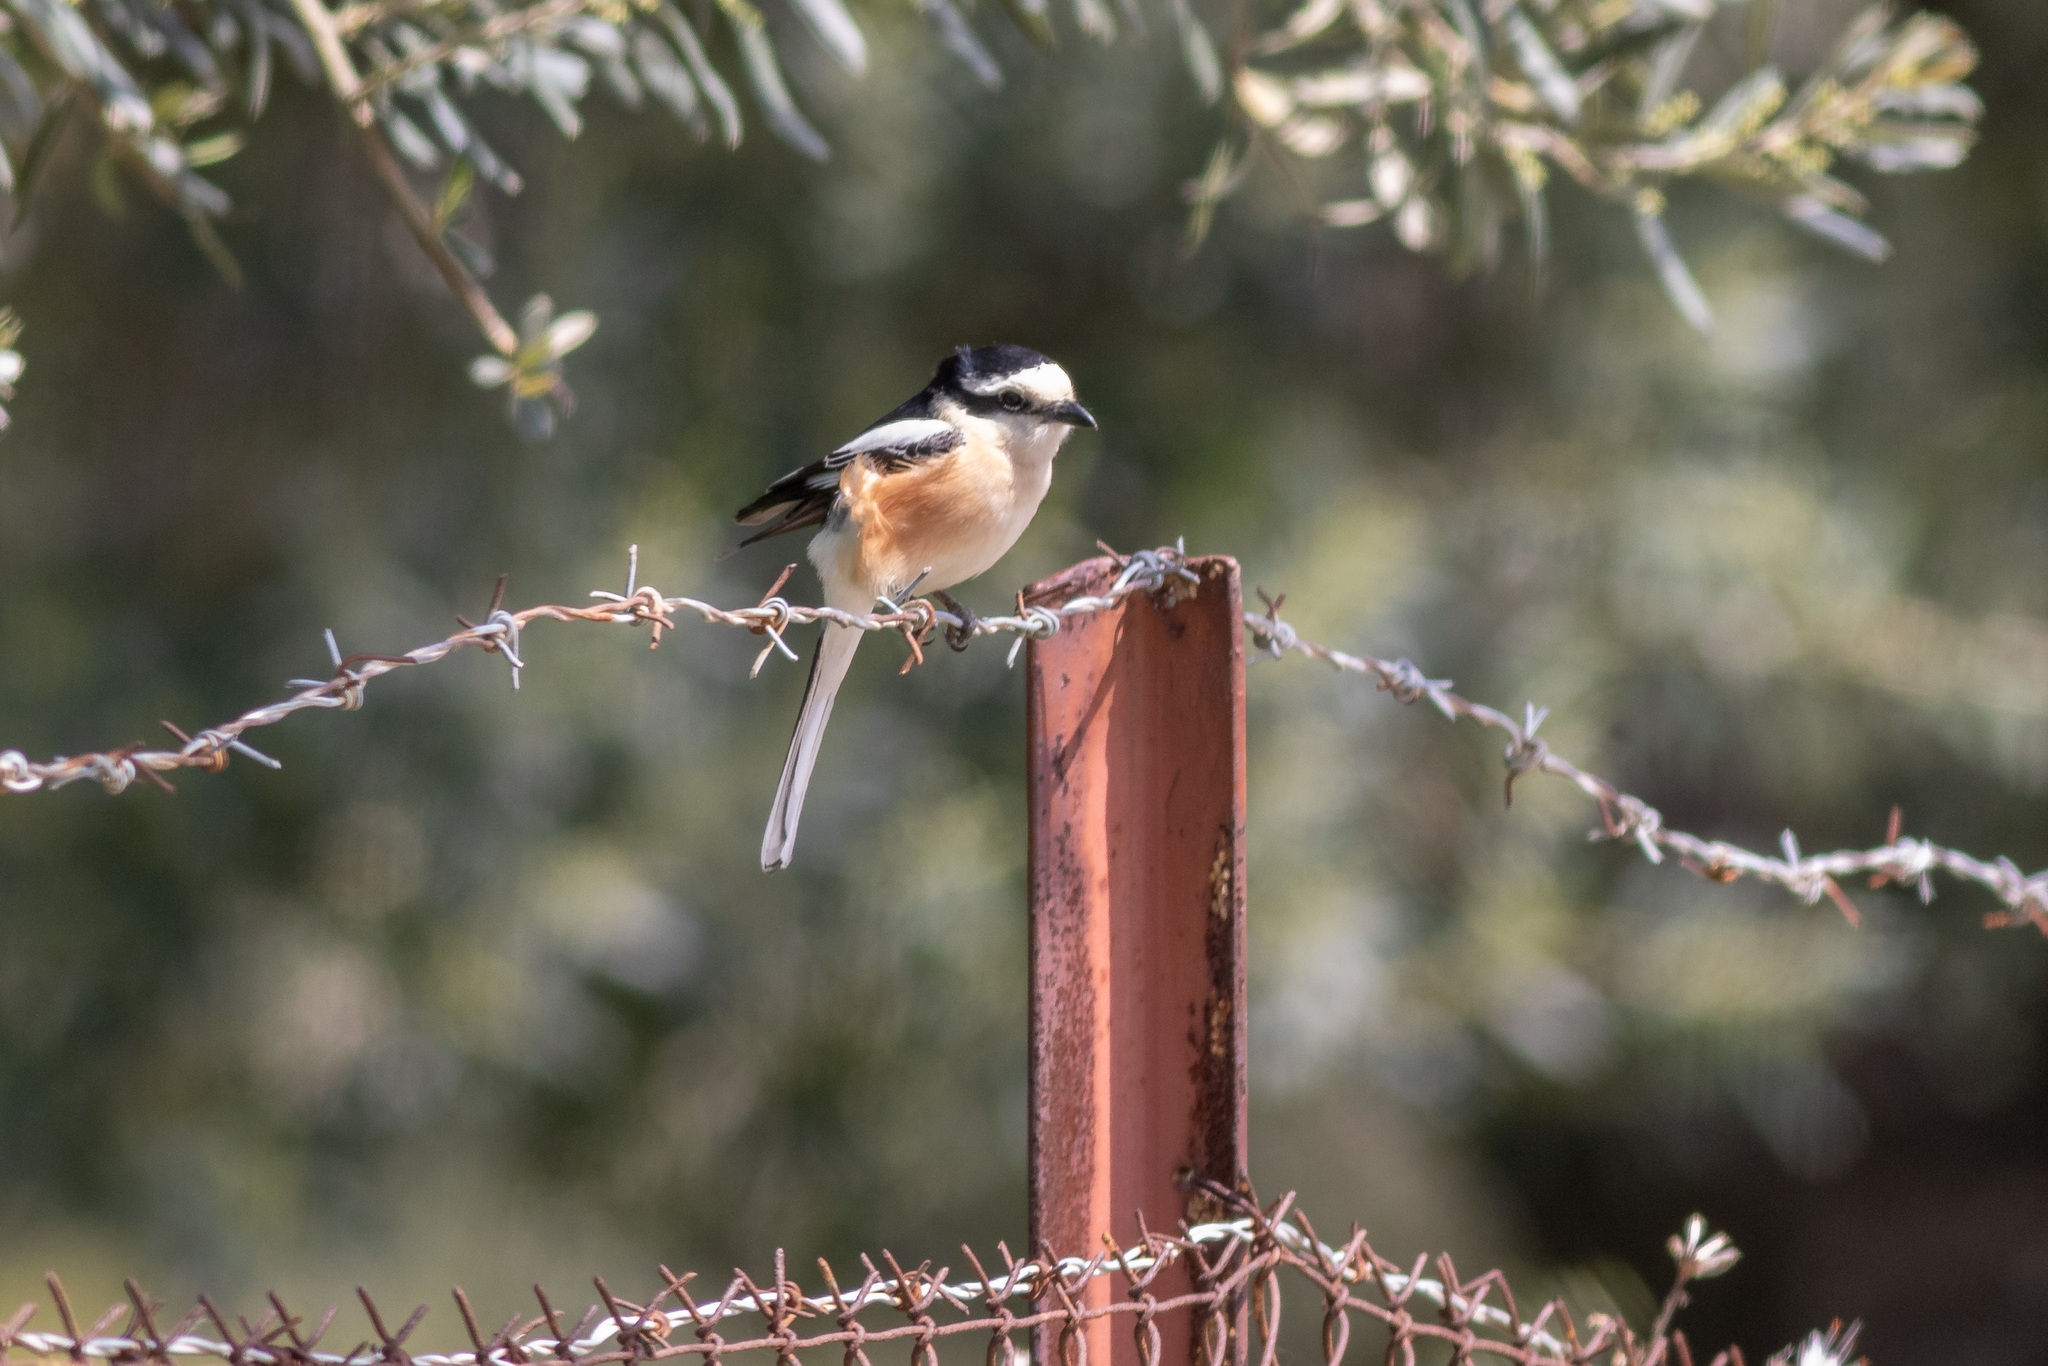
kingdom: Animalia
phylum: Chordata
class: Aves
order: Passeriformes
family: Laniidae
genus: Lanius
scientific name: Lanius nubicus
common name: Masked shrike
